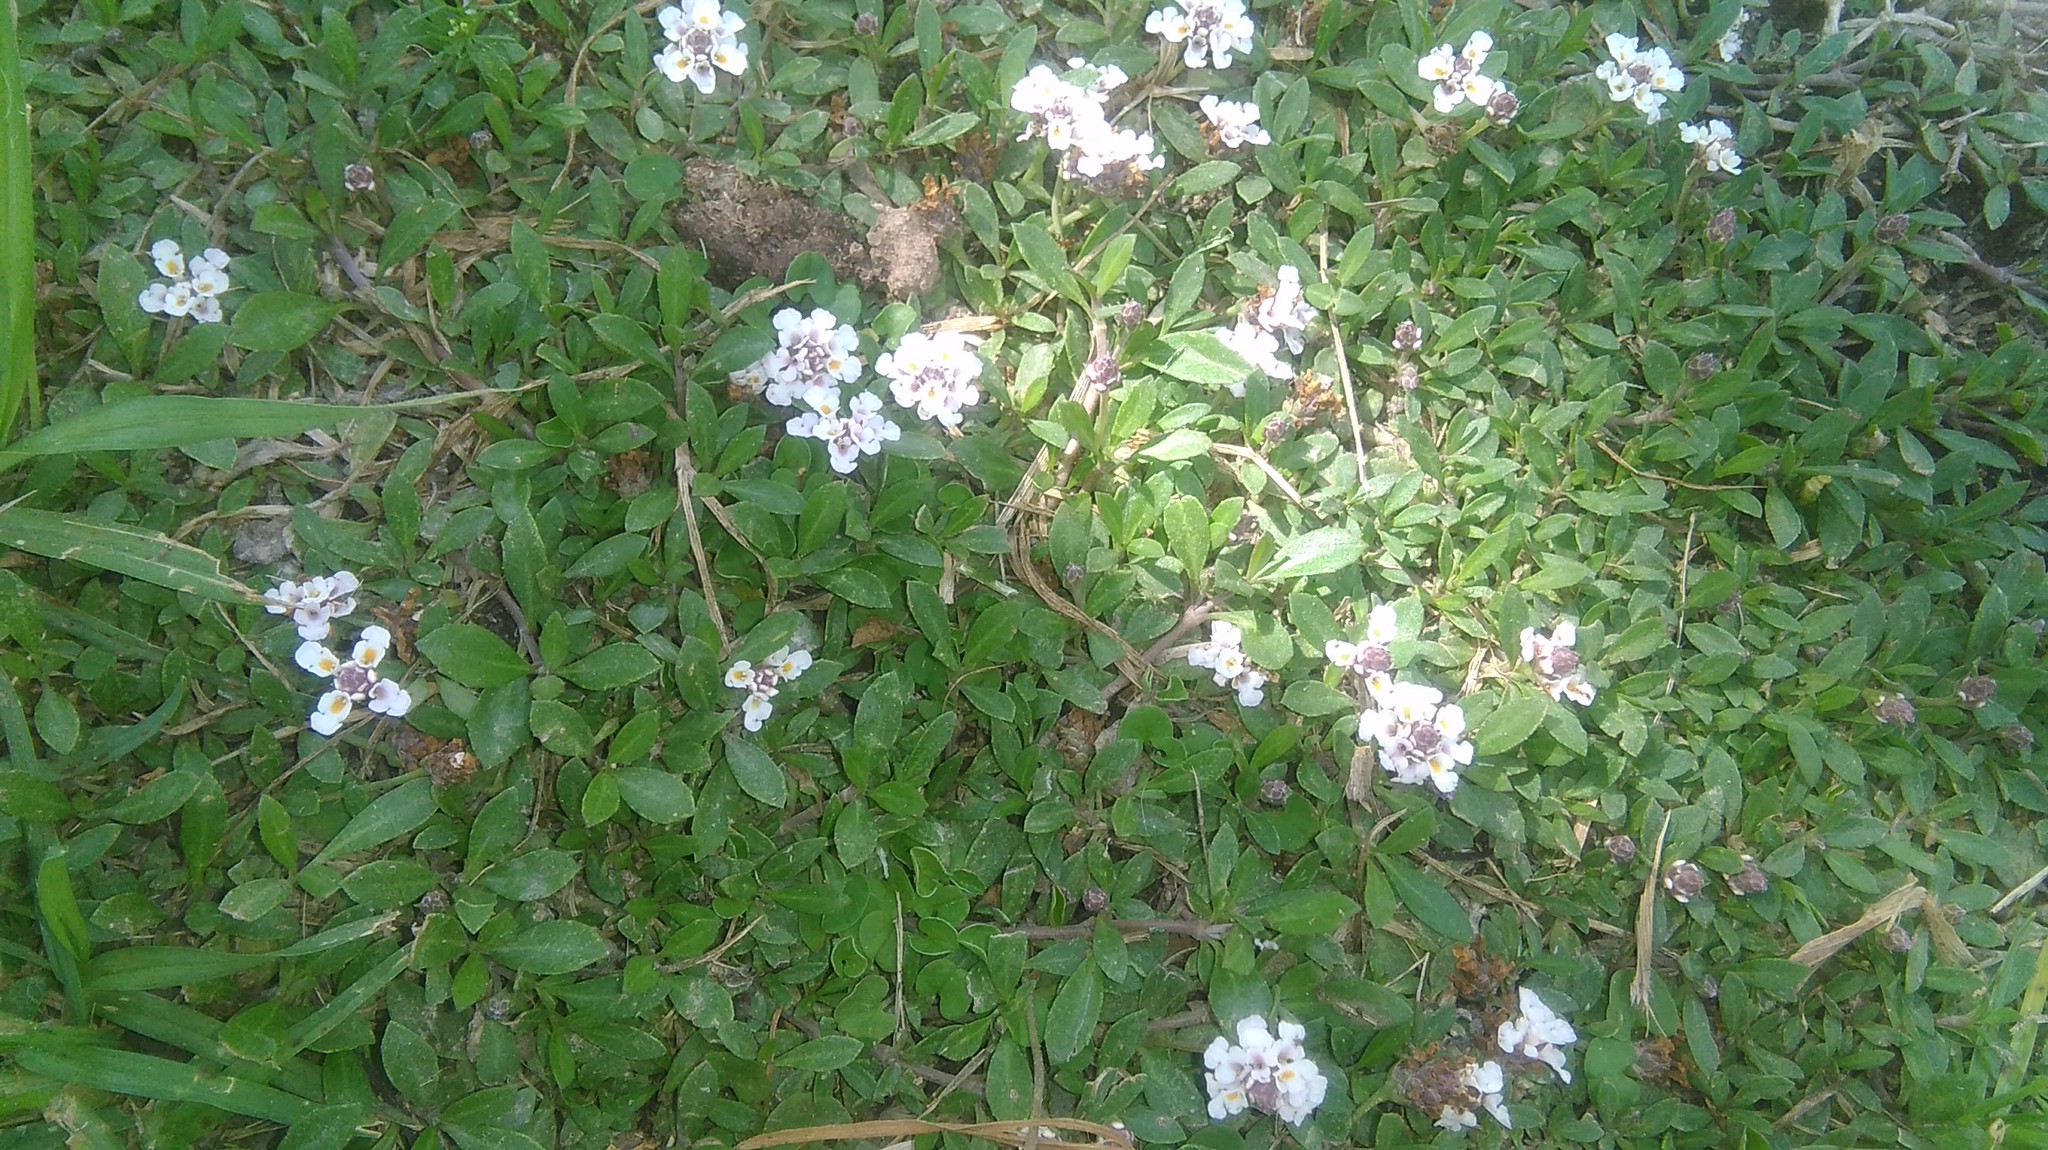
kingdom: Plantae
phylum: Tracheophyta
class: Magnoliopsida
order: Lamiales
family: Verbenaceae
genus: Phyla
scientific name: Phyla nodiflora
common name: Frogfruit
